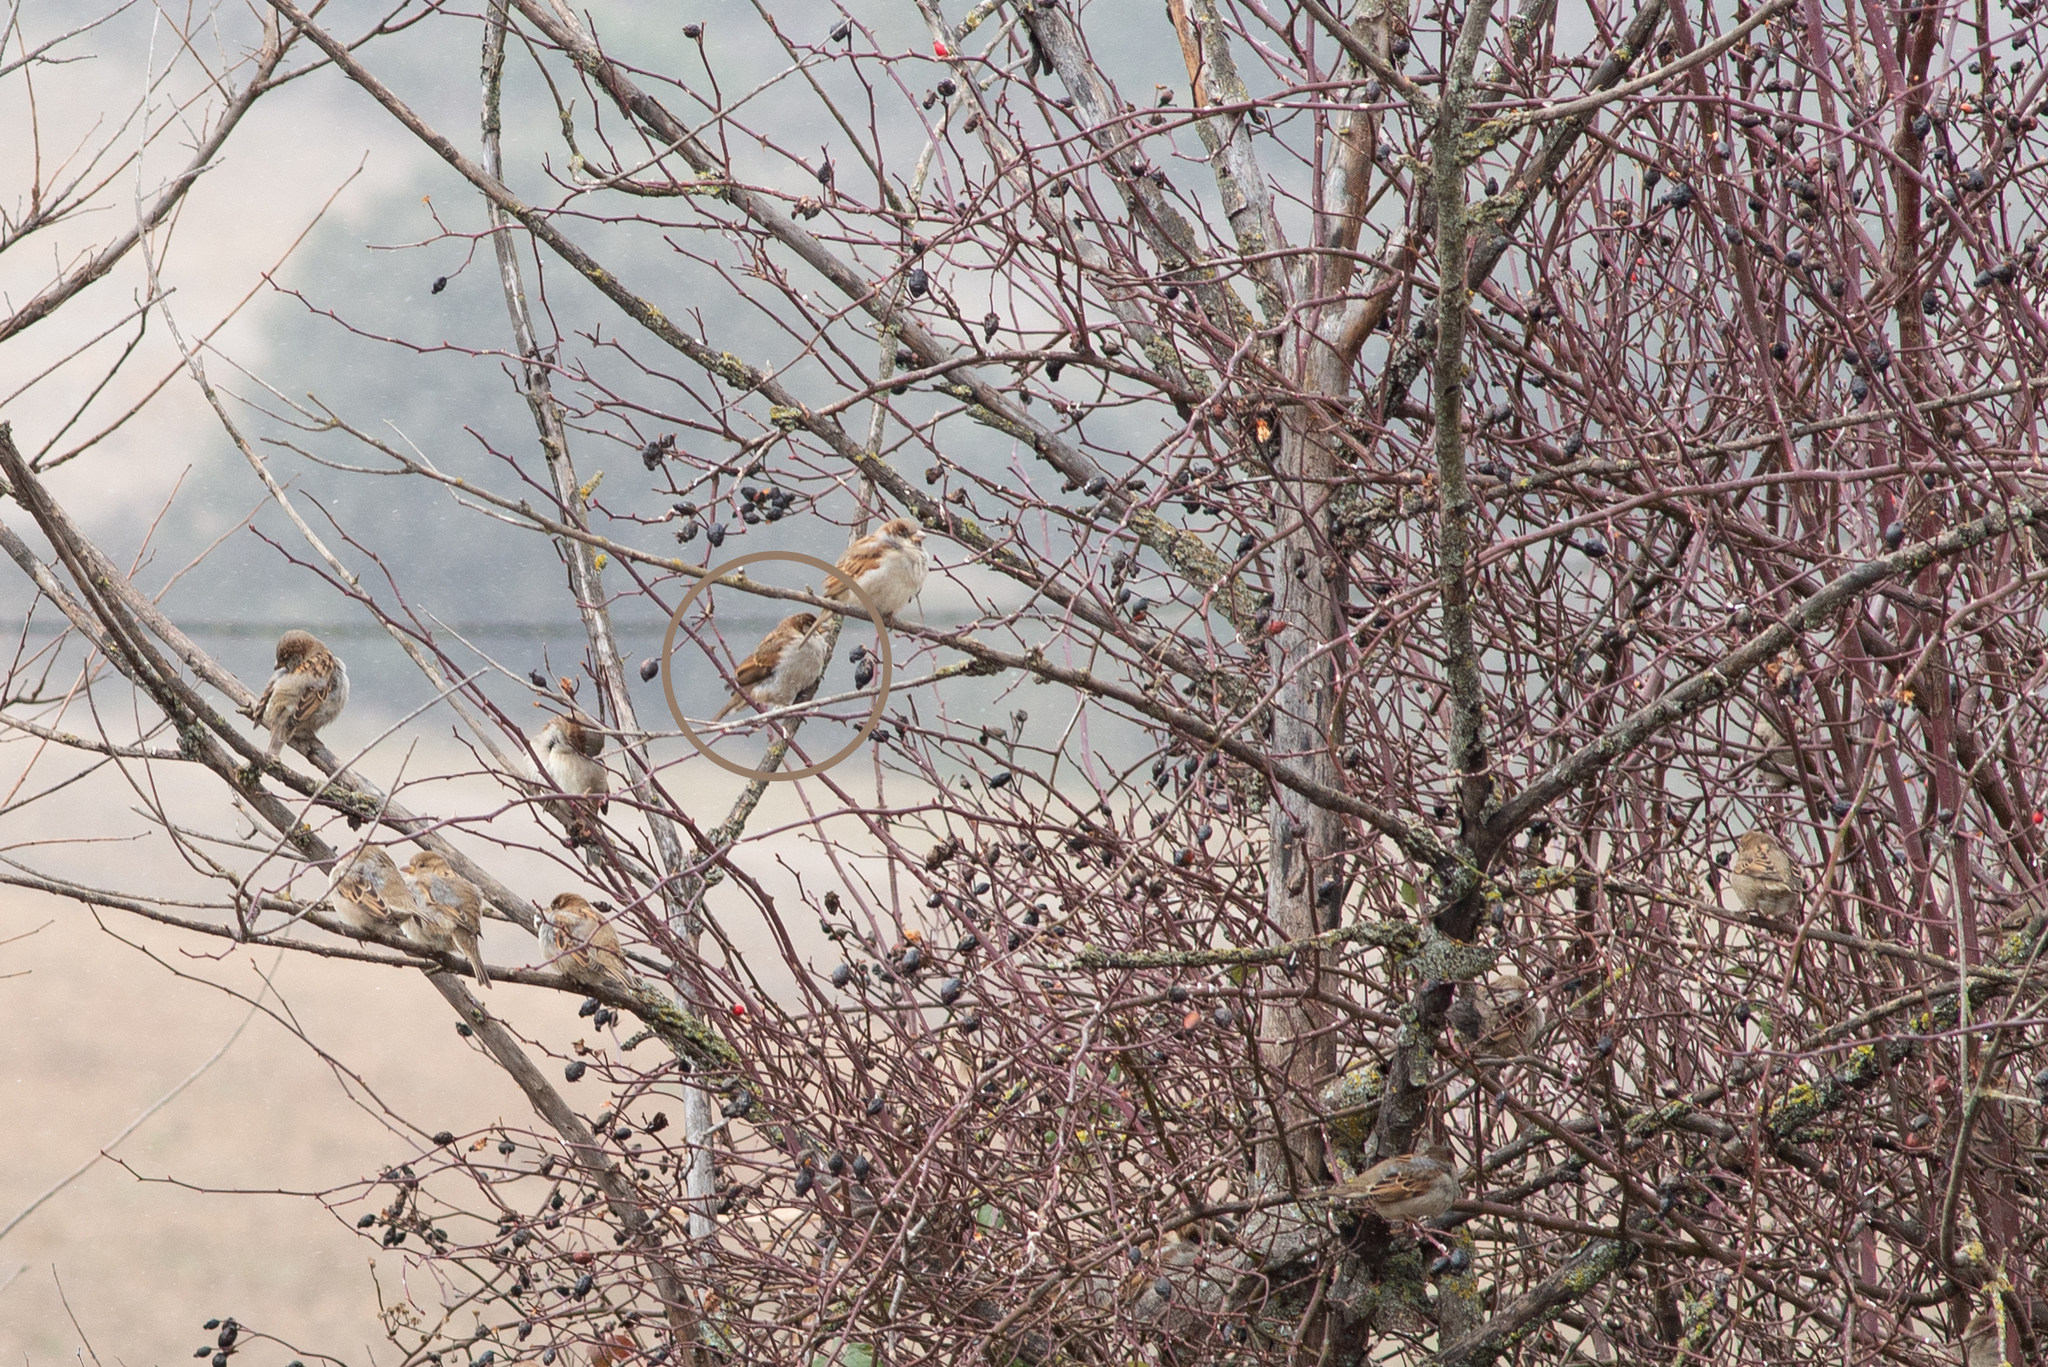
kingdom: Animalia
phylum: Chordata
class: Aves
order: Passeriformes
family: Passeridae
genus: Passer
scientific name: Passer domesticus
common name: House sparrow
